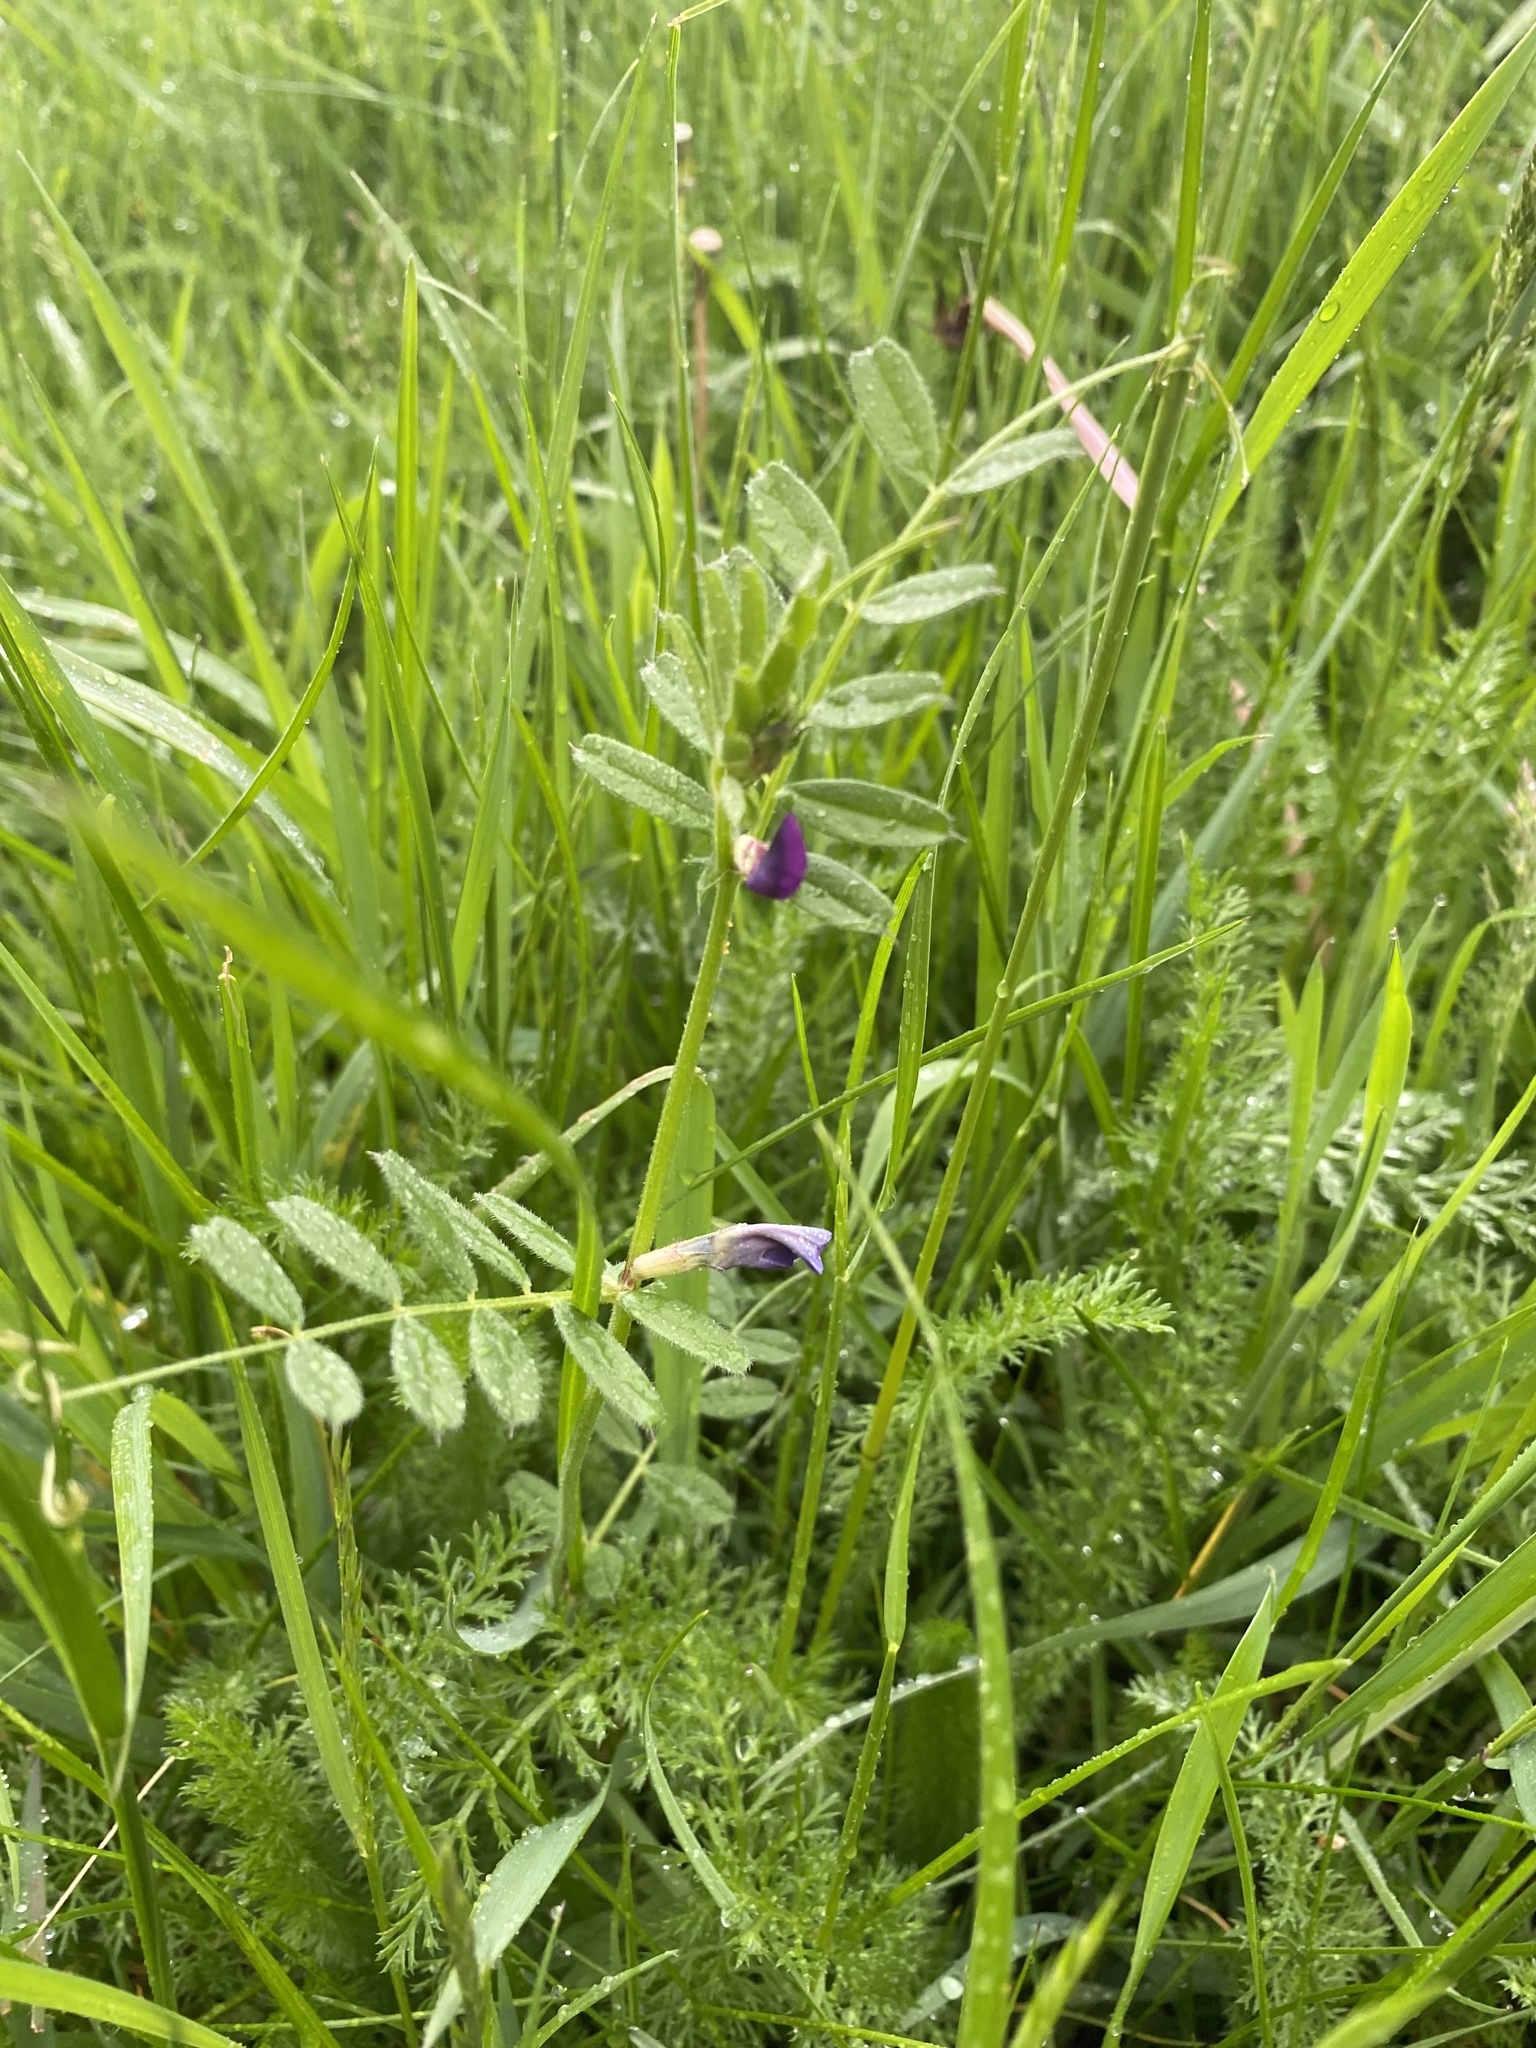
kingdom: Plantae
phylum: Tracheophyta
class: Magnoliopsida
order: Fabales
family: Fabaceae
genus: Vicia
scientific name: Vicia sativa
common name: Garden vetch
